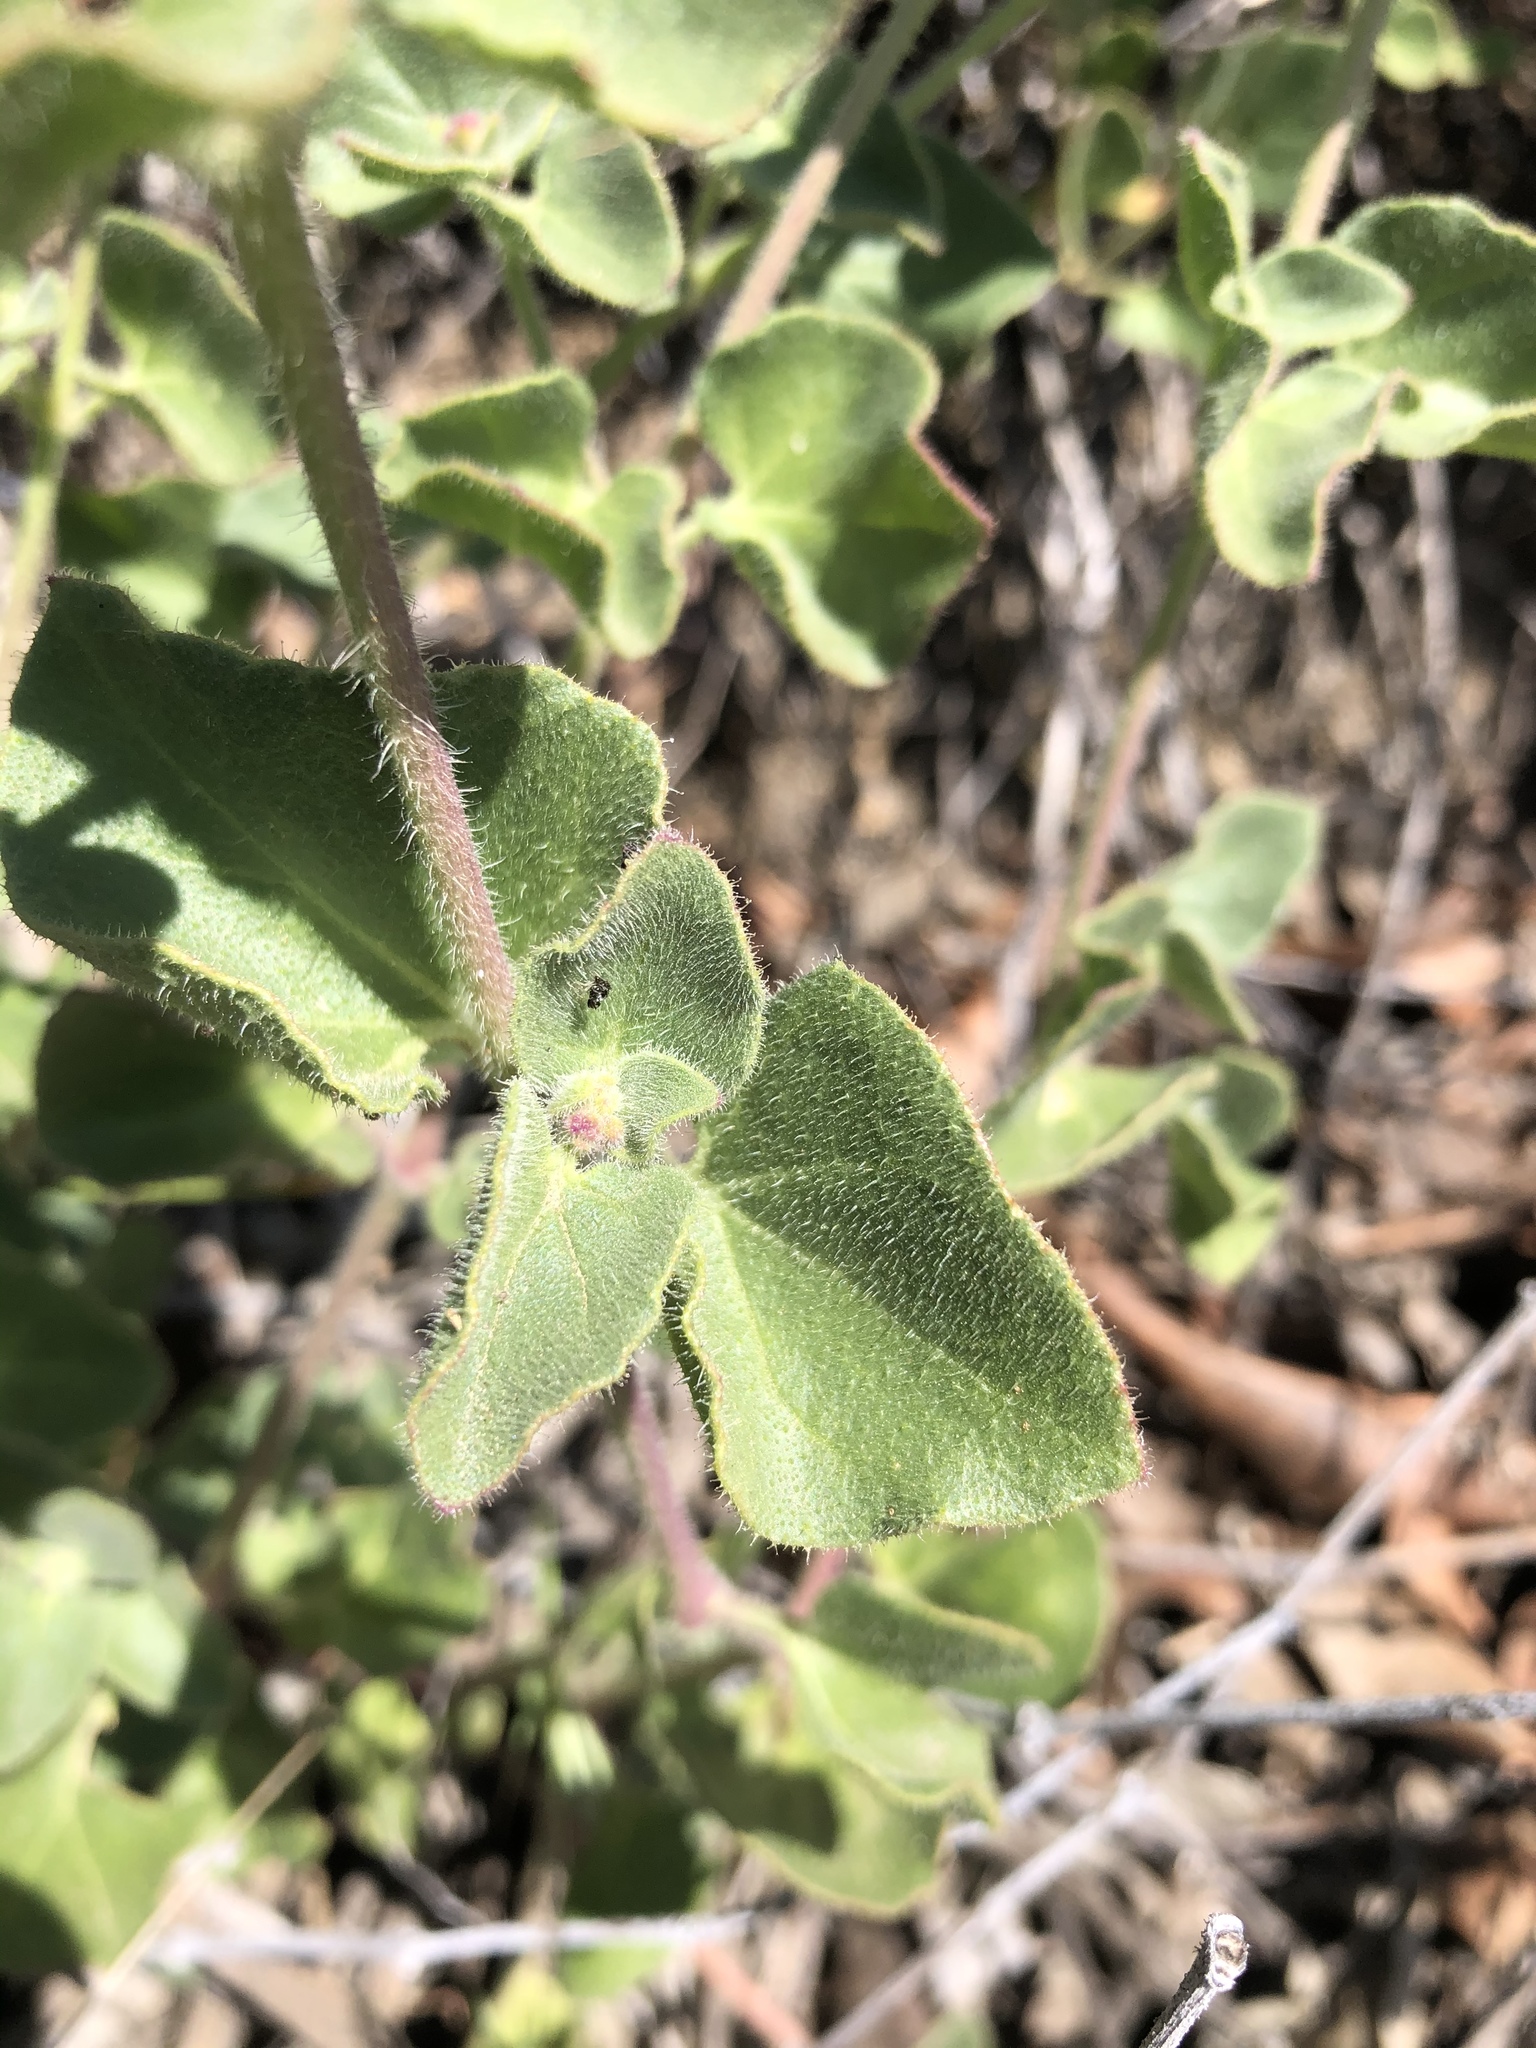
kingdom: Plantae
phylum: Tracheophyta
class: Magnoliopsida
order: Caryophyllales
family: Nyctaginaceae
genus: Mirabilis
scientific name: Mirabilis laevis
